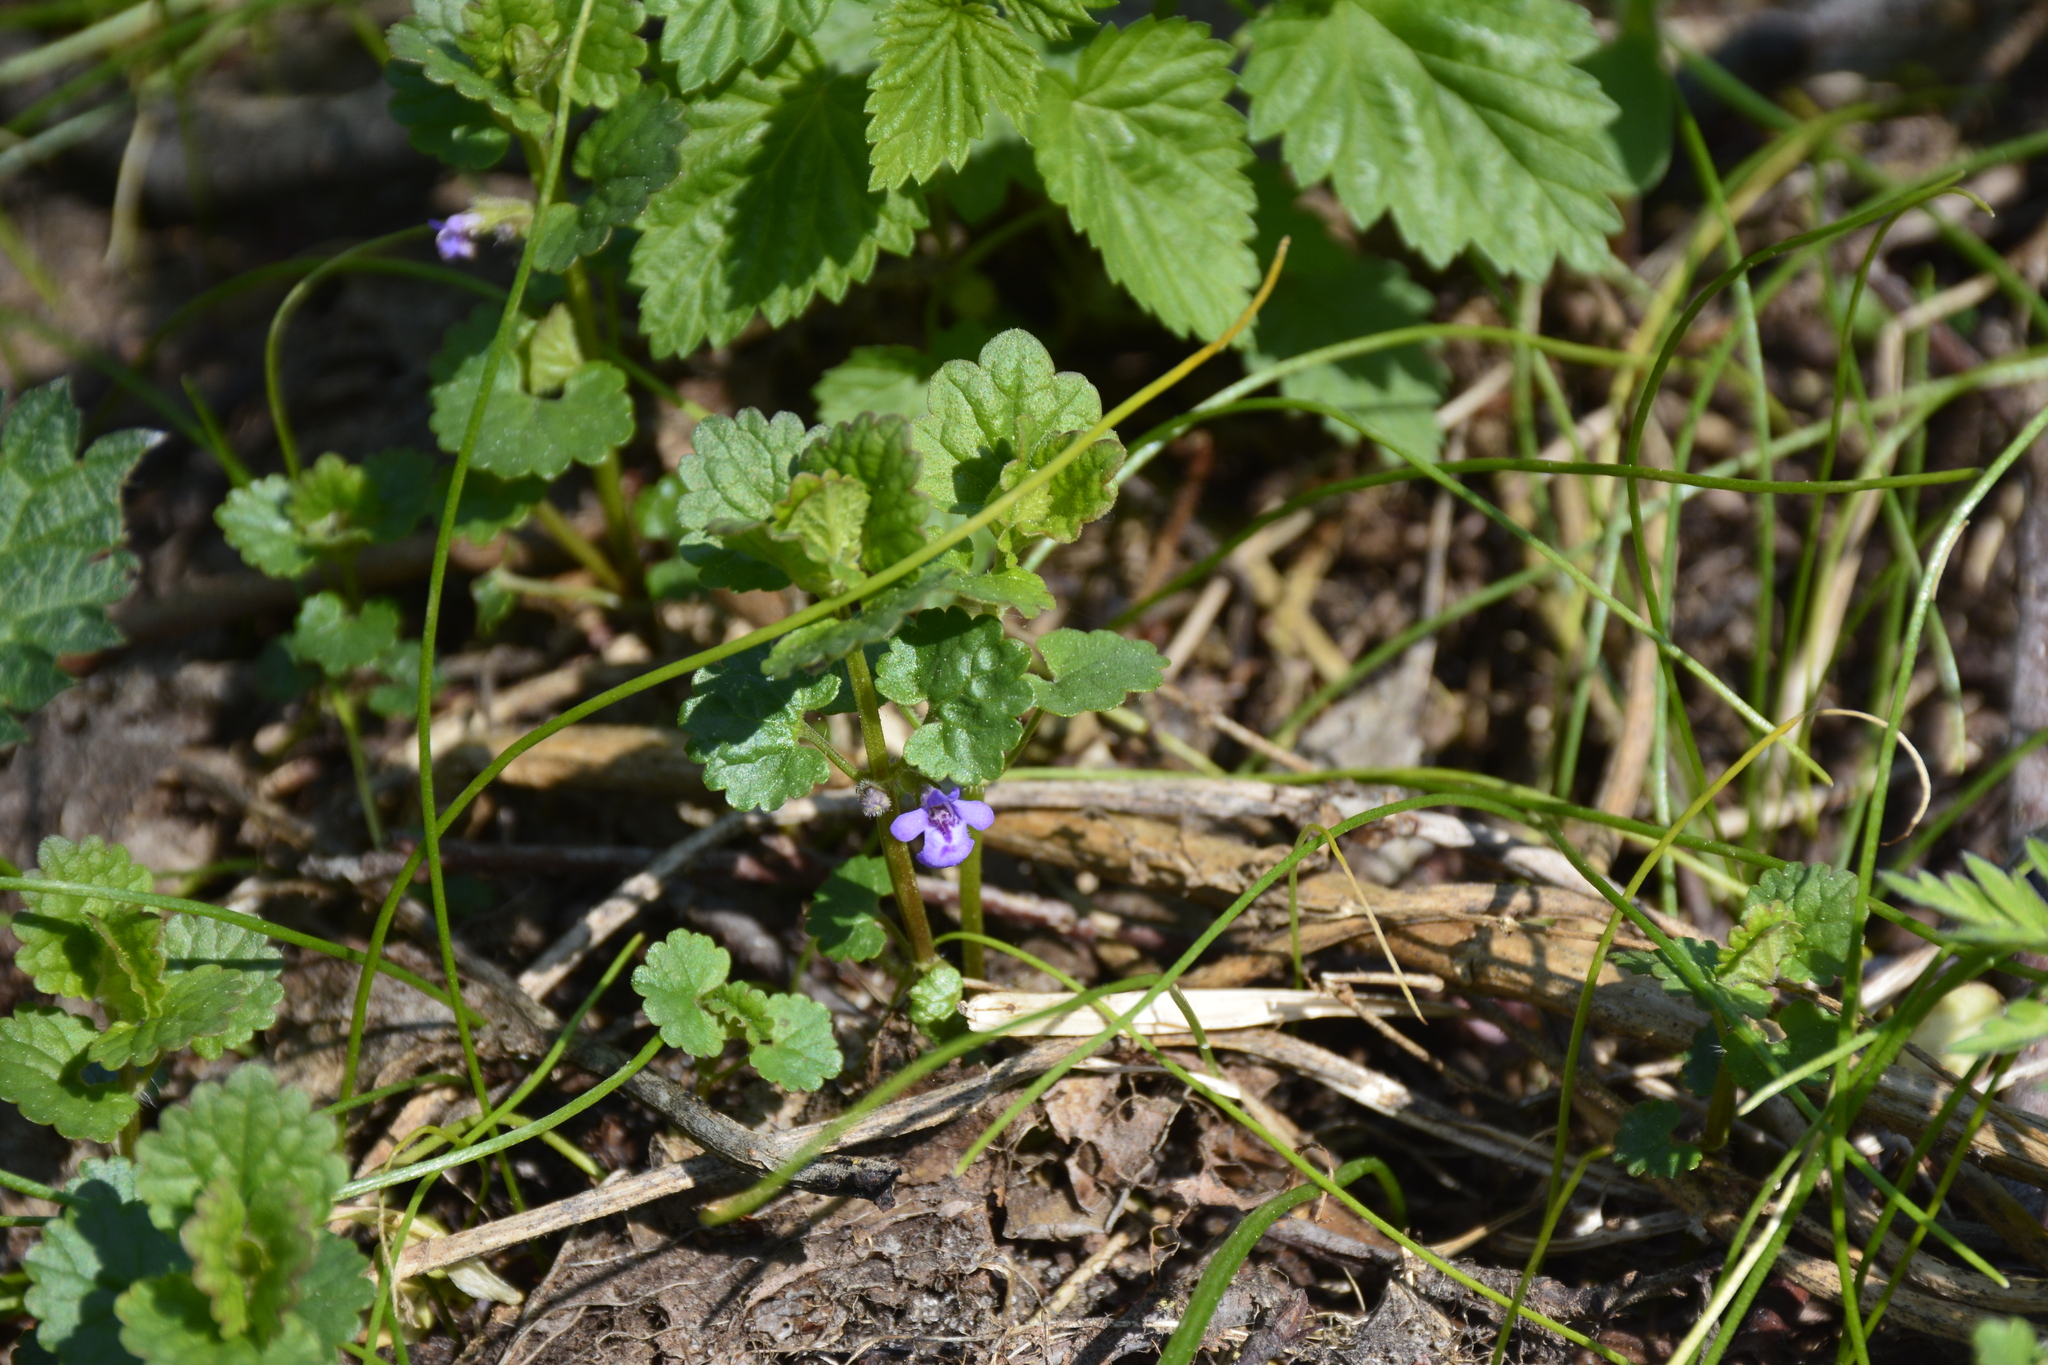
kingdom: Plantae
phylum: Tracheophyta
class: Magnoliopsida
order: Lamiales
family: Lamiaceae
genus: Glechoma
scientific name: Glechoma hederacea
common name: Ground ivy
